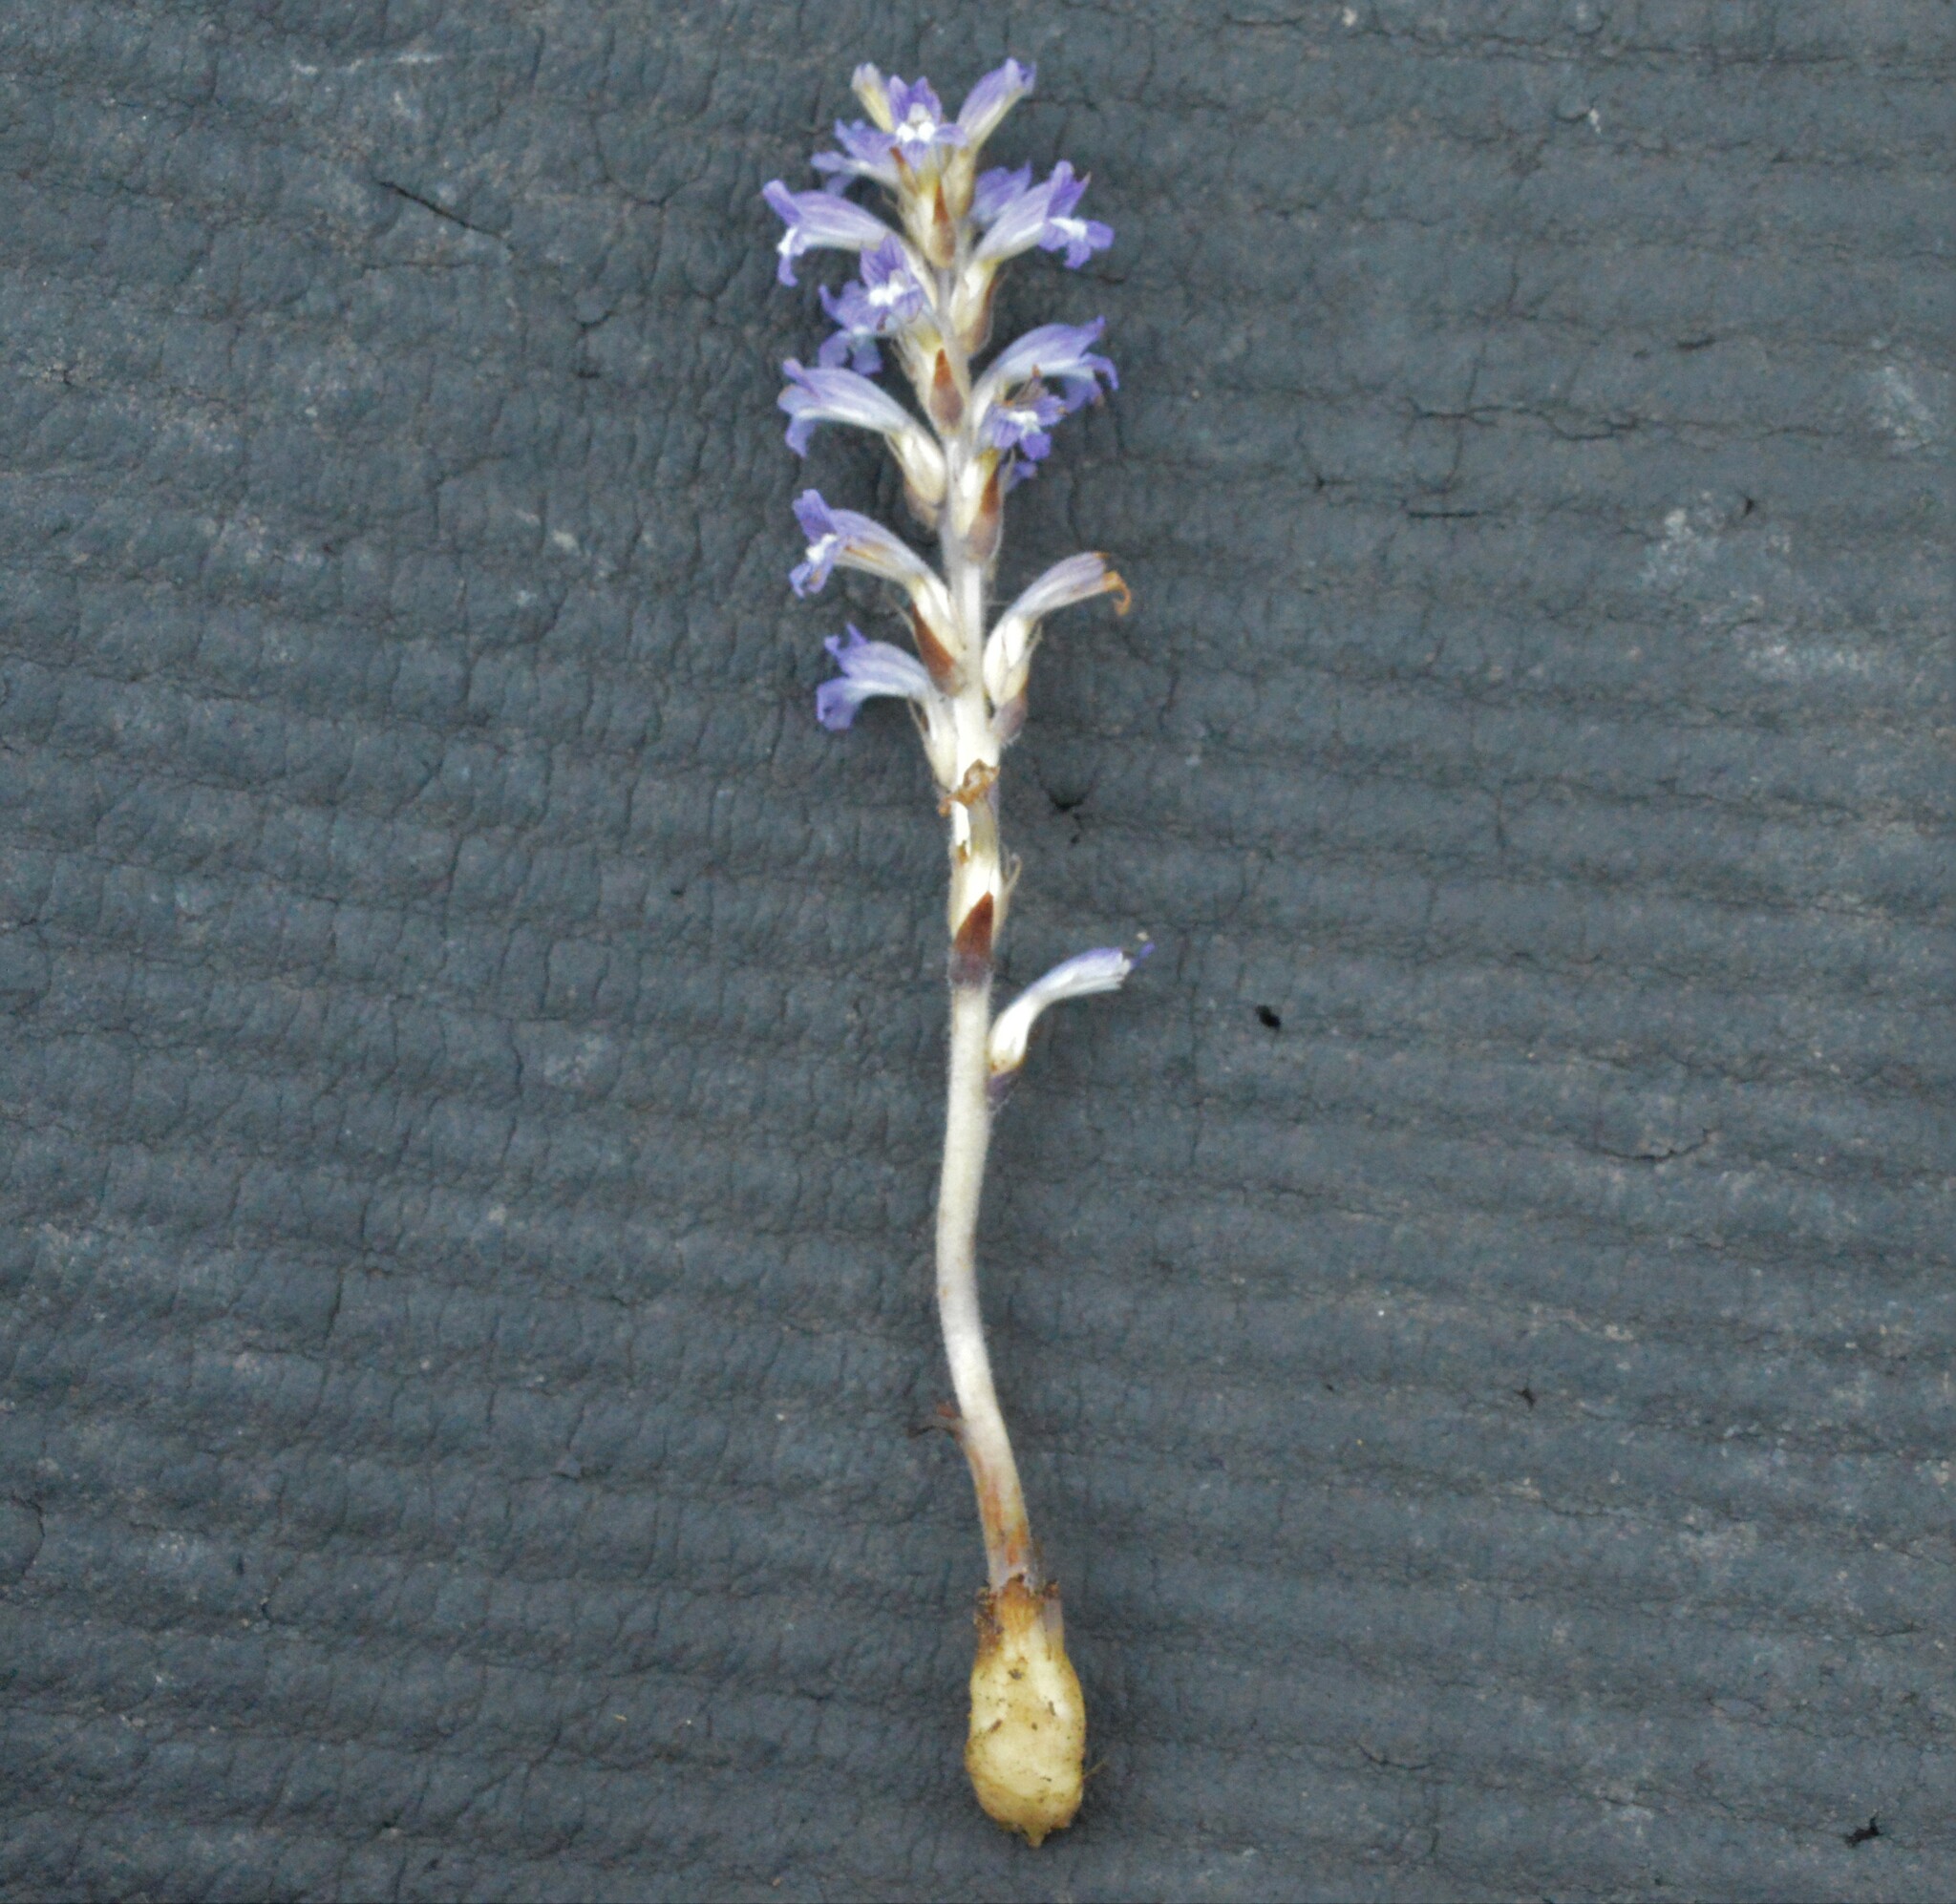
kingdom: Plantae
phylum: Tracheophyta
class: Magnoliopsida
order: Lamiales
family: Orobanchaceae
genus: Phelipanche
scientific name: Phelipanche mutelii
